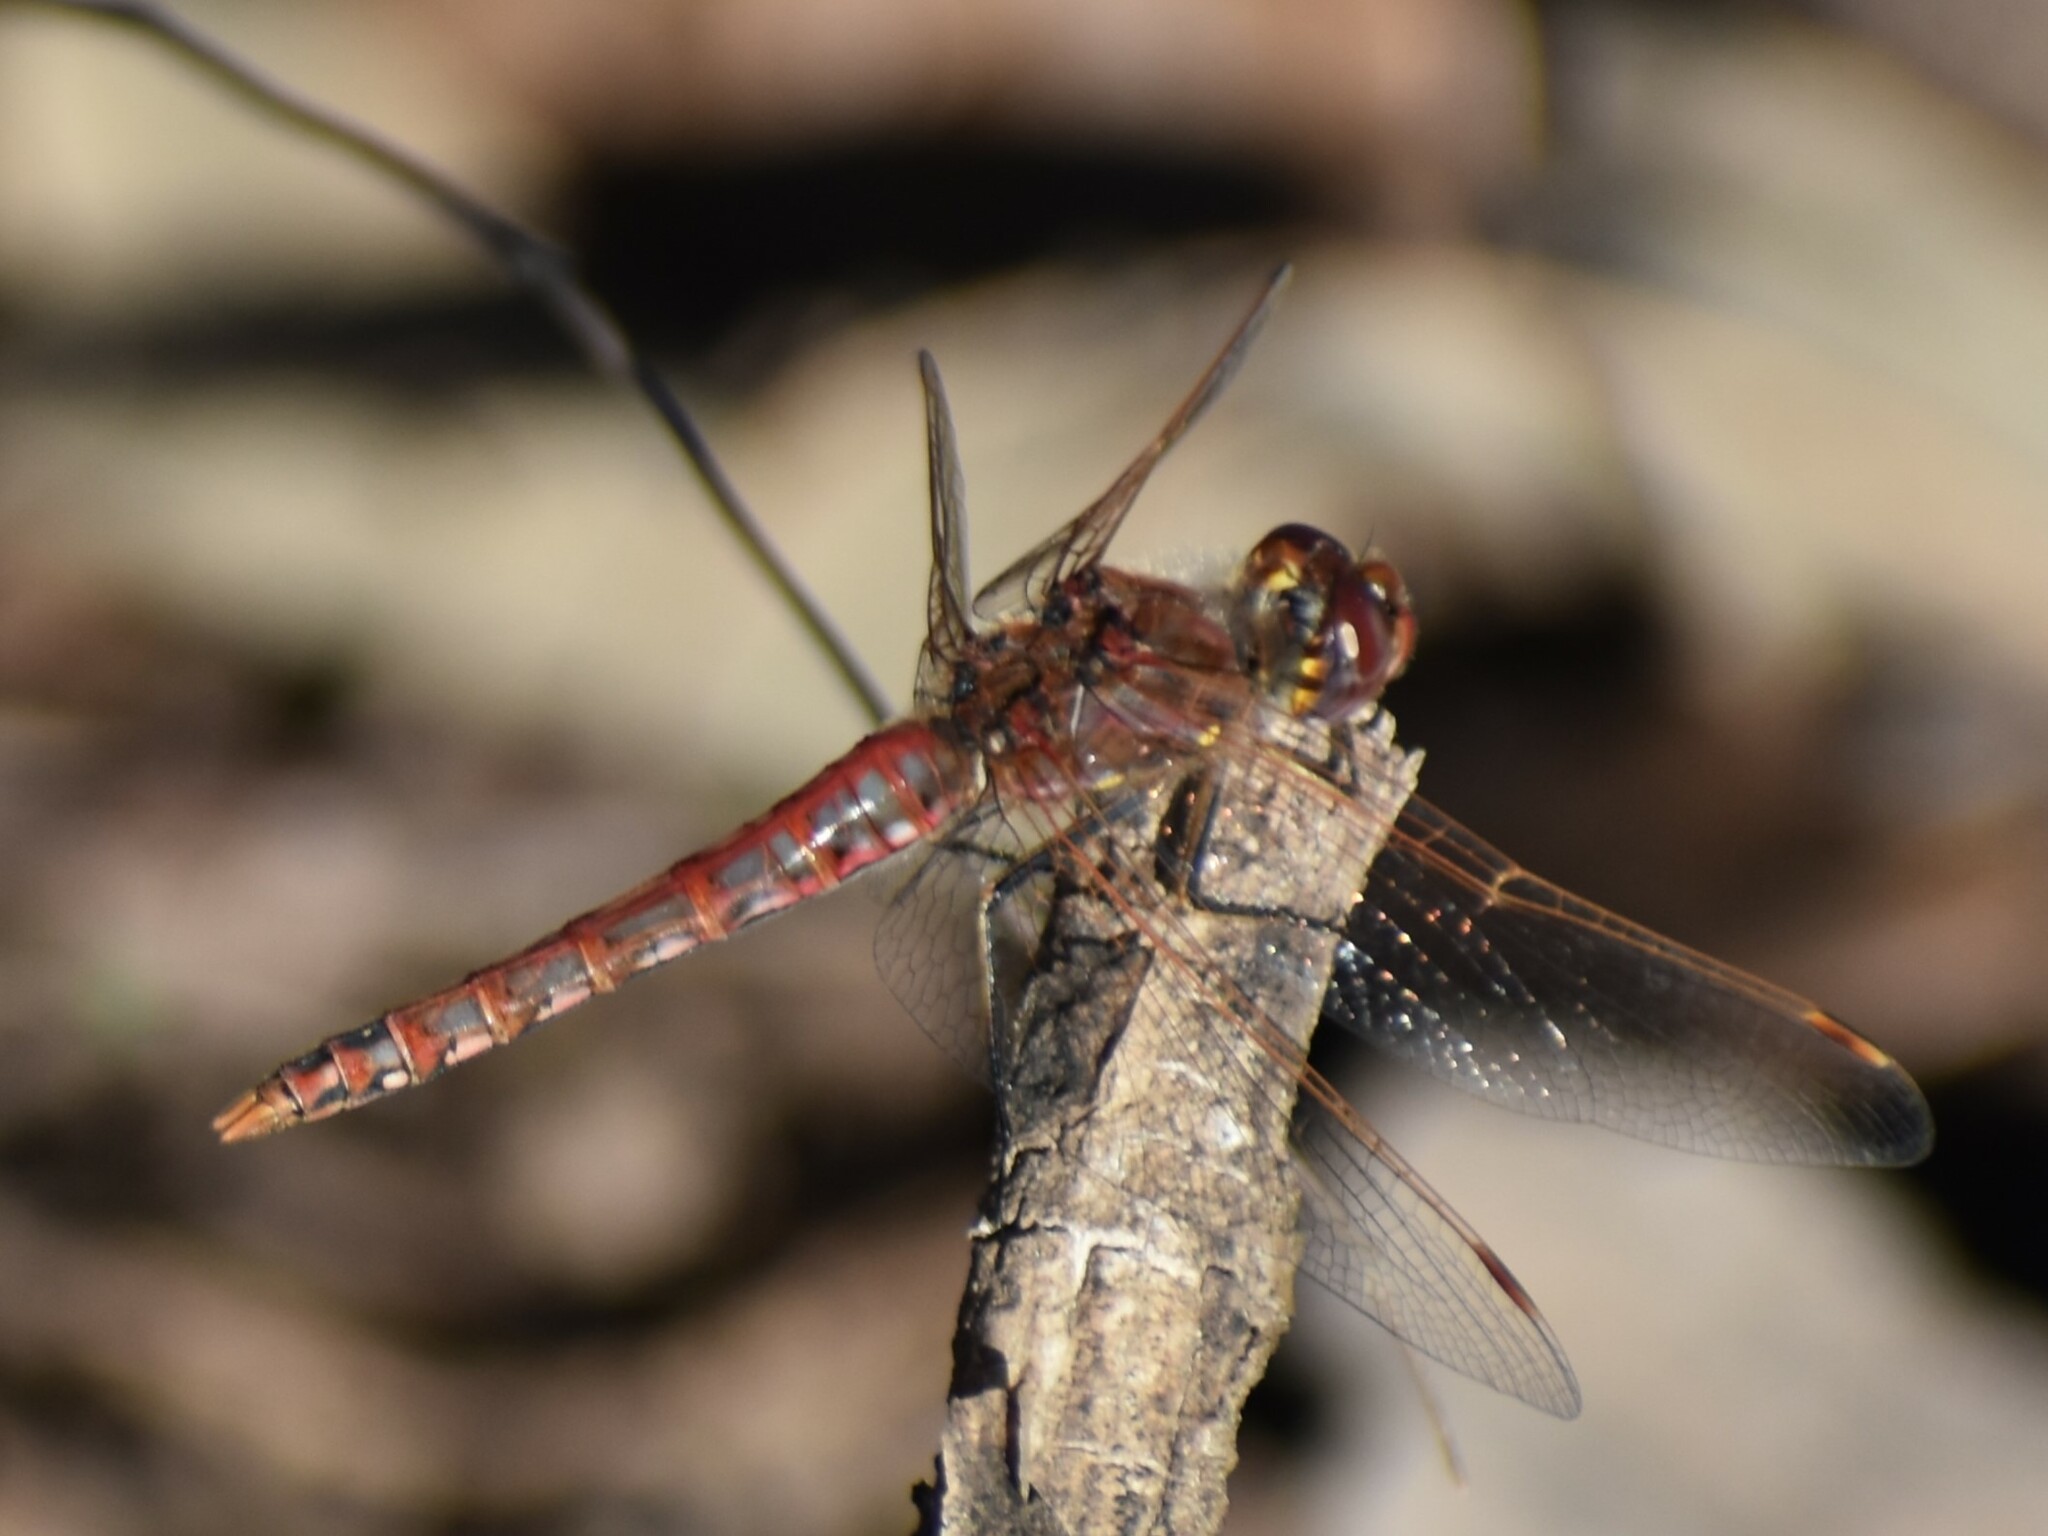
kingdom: Animalia
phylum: Arthropoda
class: Insecta
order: Odonata
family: Libellulidae
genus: Sympetrum
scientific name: Sympetrum corruptum
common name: Variegated meadowhawk
